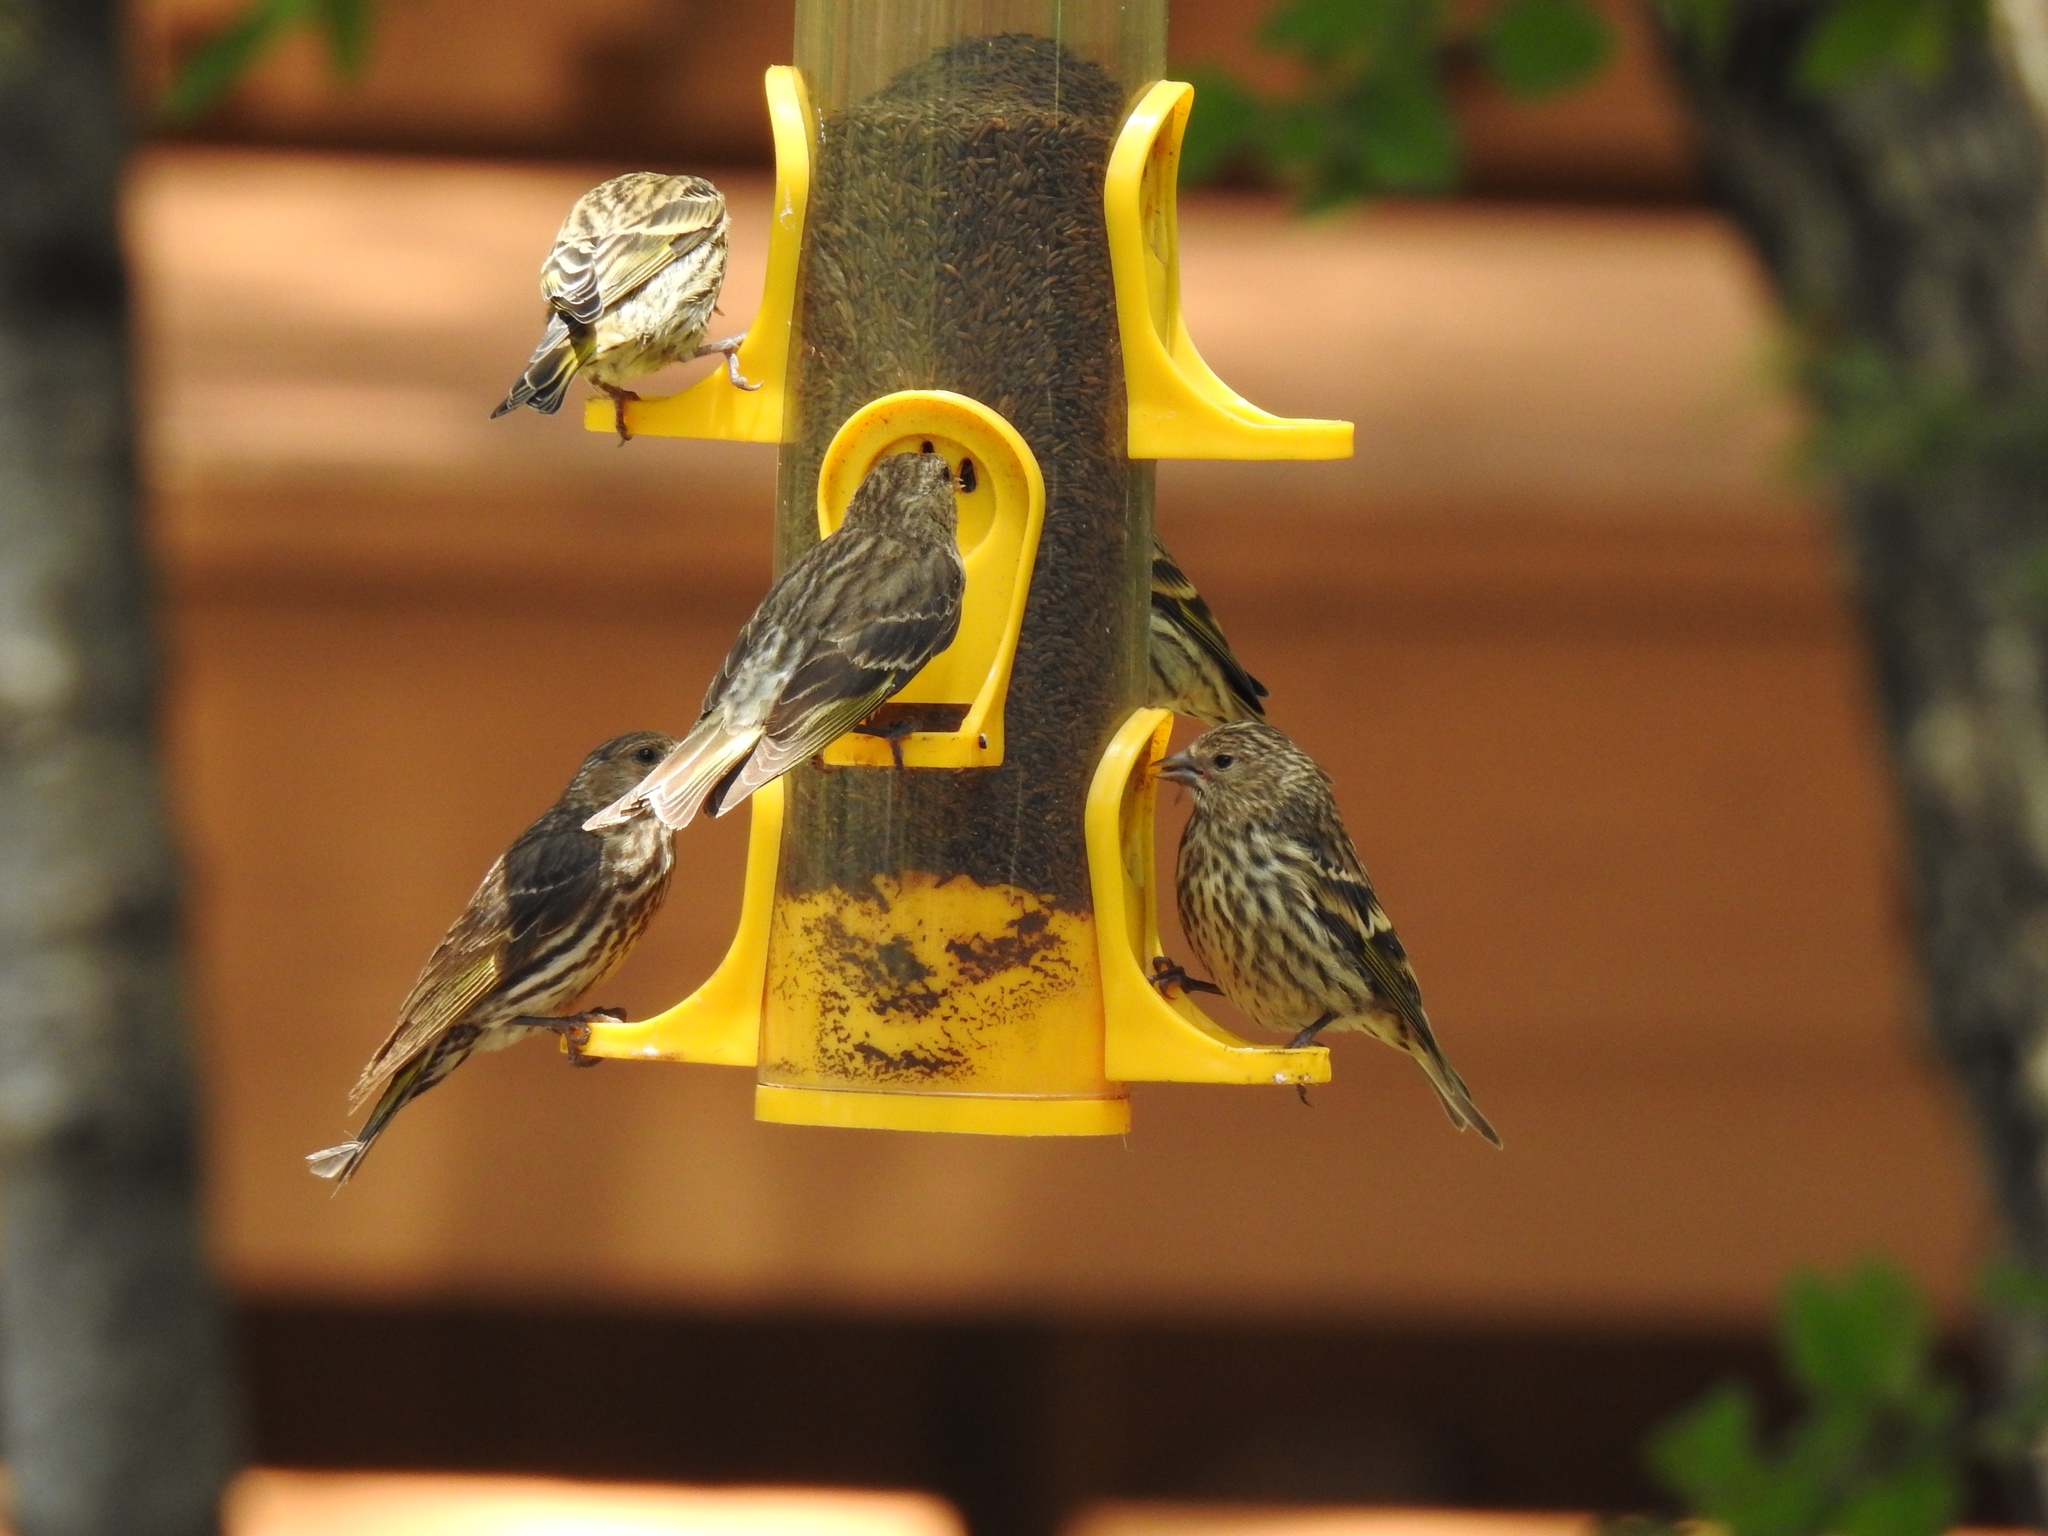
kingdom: Animalia
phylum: Chordata
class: Aves
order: Passeriformes
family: Fringillidae
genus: Spinus
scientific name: Spinus pinus
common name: Pine siskin
